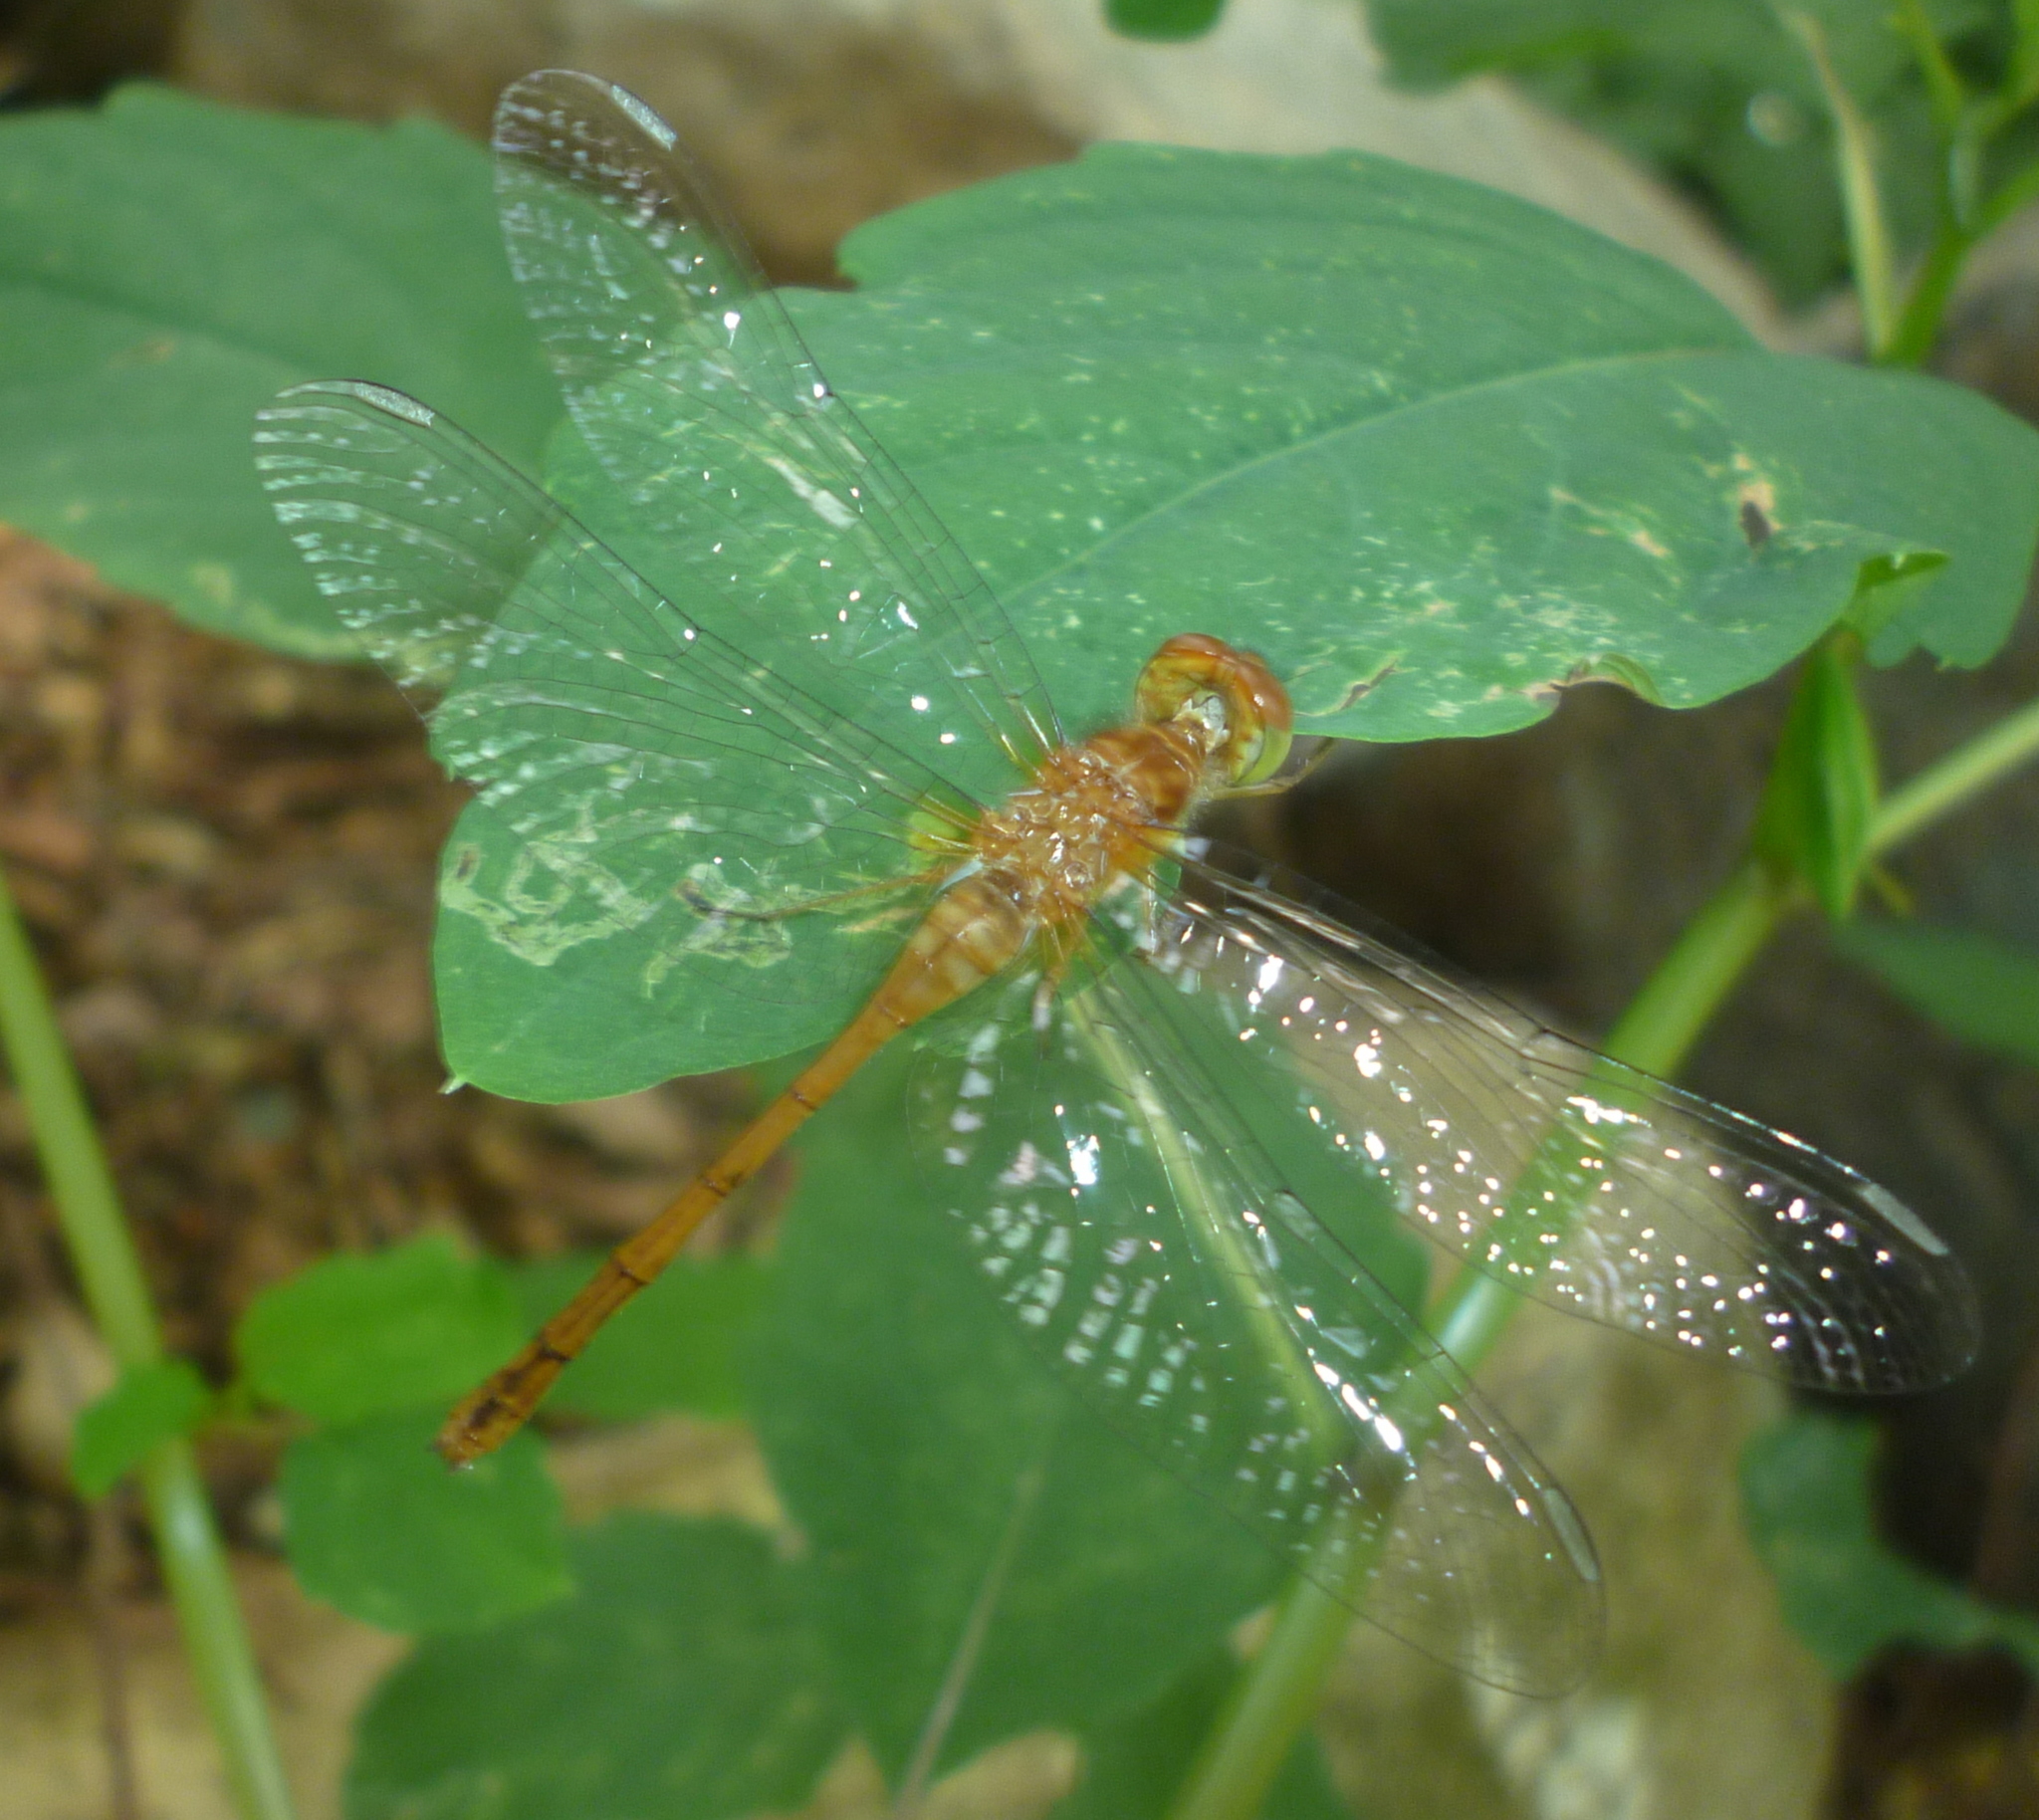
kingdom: Animalia
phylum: Arthropoda
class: Insecta
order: Odonata
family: Libellulidae
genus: Sympetrum
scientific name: Sympetrum vicinum
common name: Autumn meadowhawk
